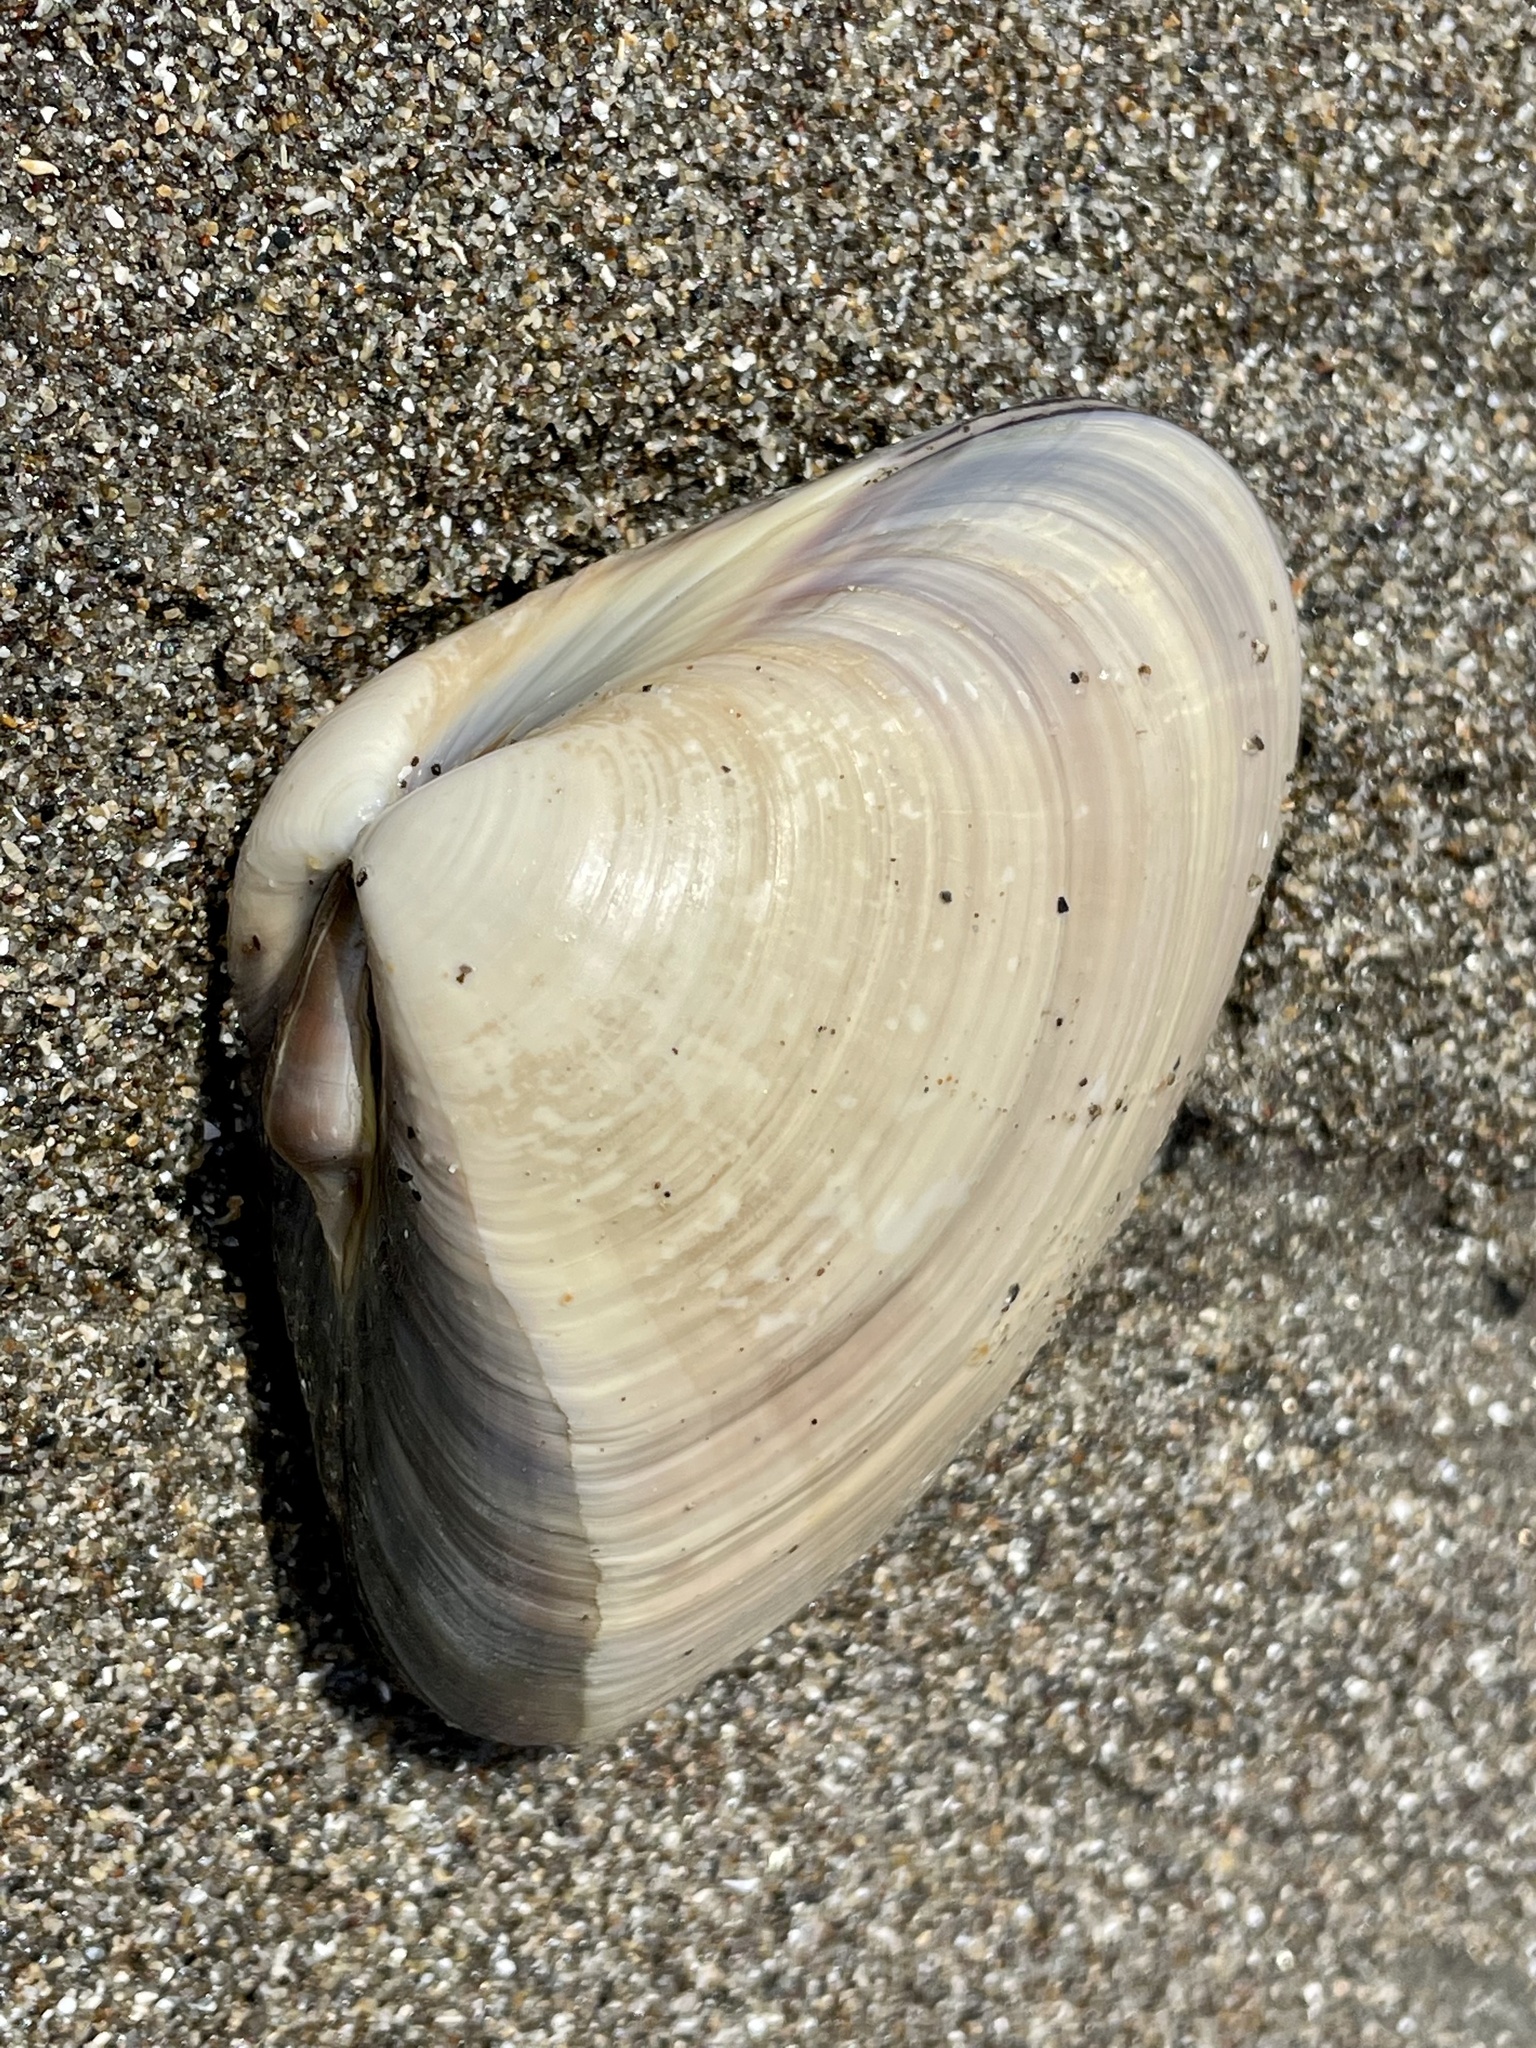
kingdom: Animalia
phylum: Mollusca
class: Bivalvia
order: Venerida
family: Veneridae
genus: Tivela
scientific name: Tivela stultorum
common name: Pismo clam
